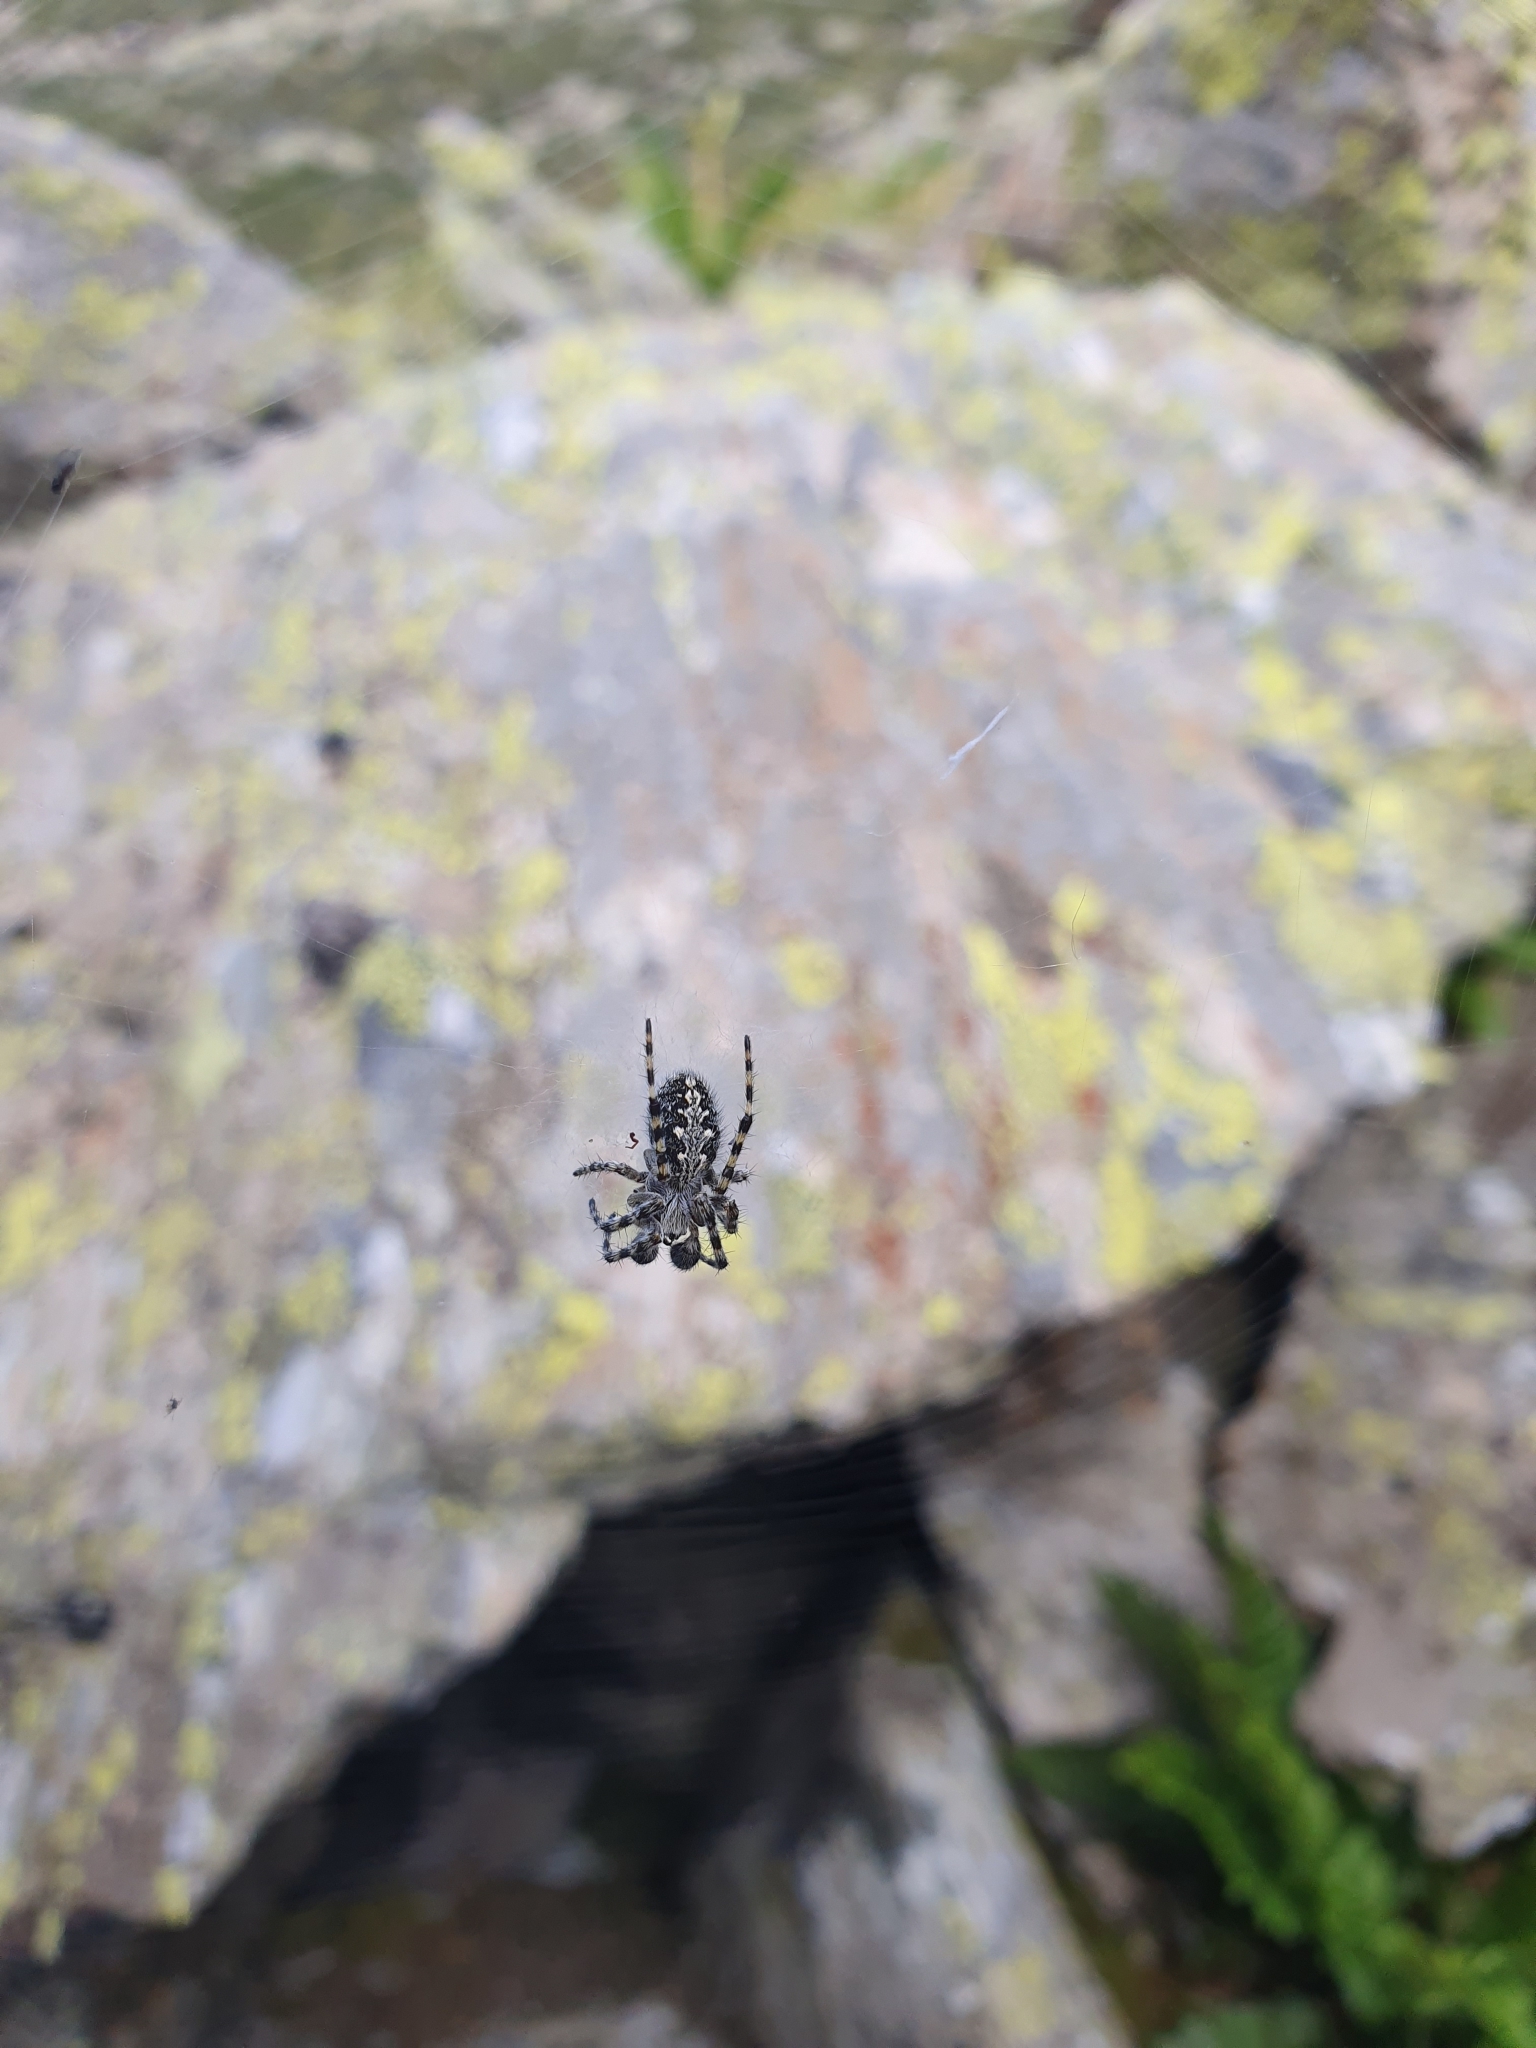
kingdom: Animalia
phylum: Arthropoda
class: Arachnida
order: Araneae
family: Araneidae
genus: Aculepeira
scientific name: Aculepeira carbonaria
